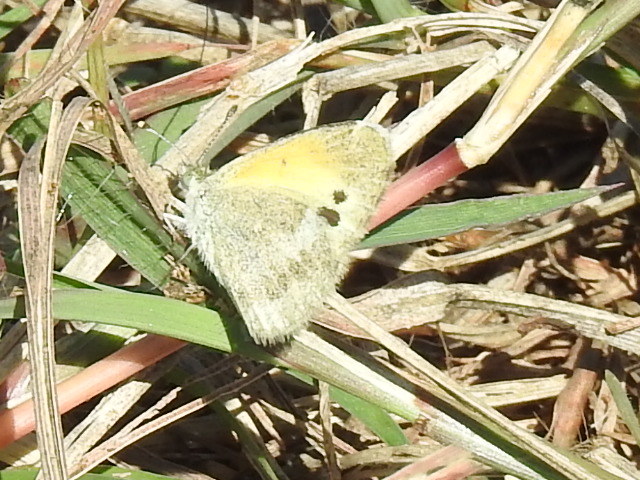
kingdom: Animalia
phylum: Arthropoda
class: Insecta
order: Lepidoptera
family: Pieridae
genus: Nathalis
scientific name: Nathalis iole
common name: Dainty sulphur
